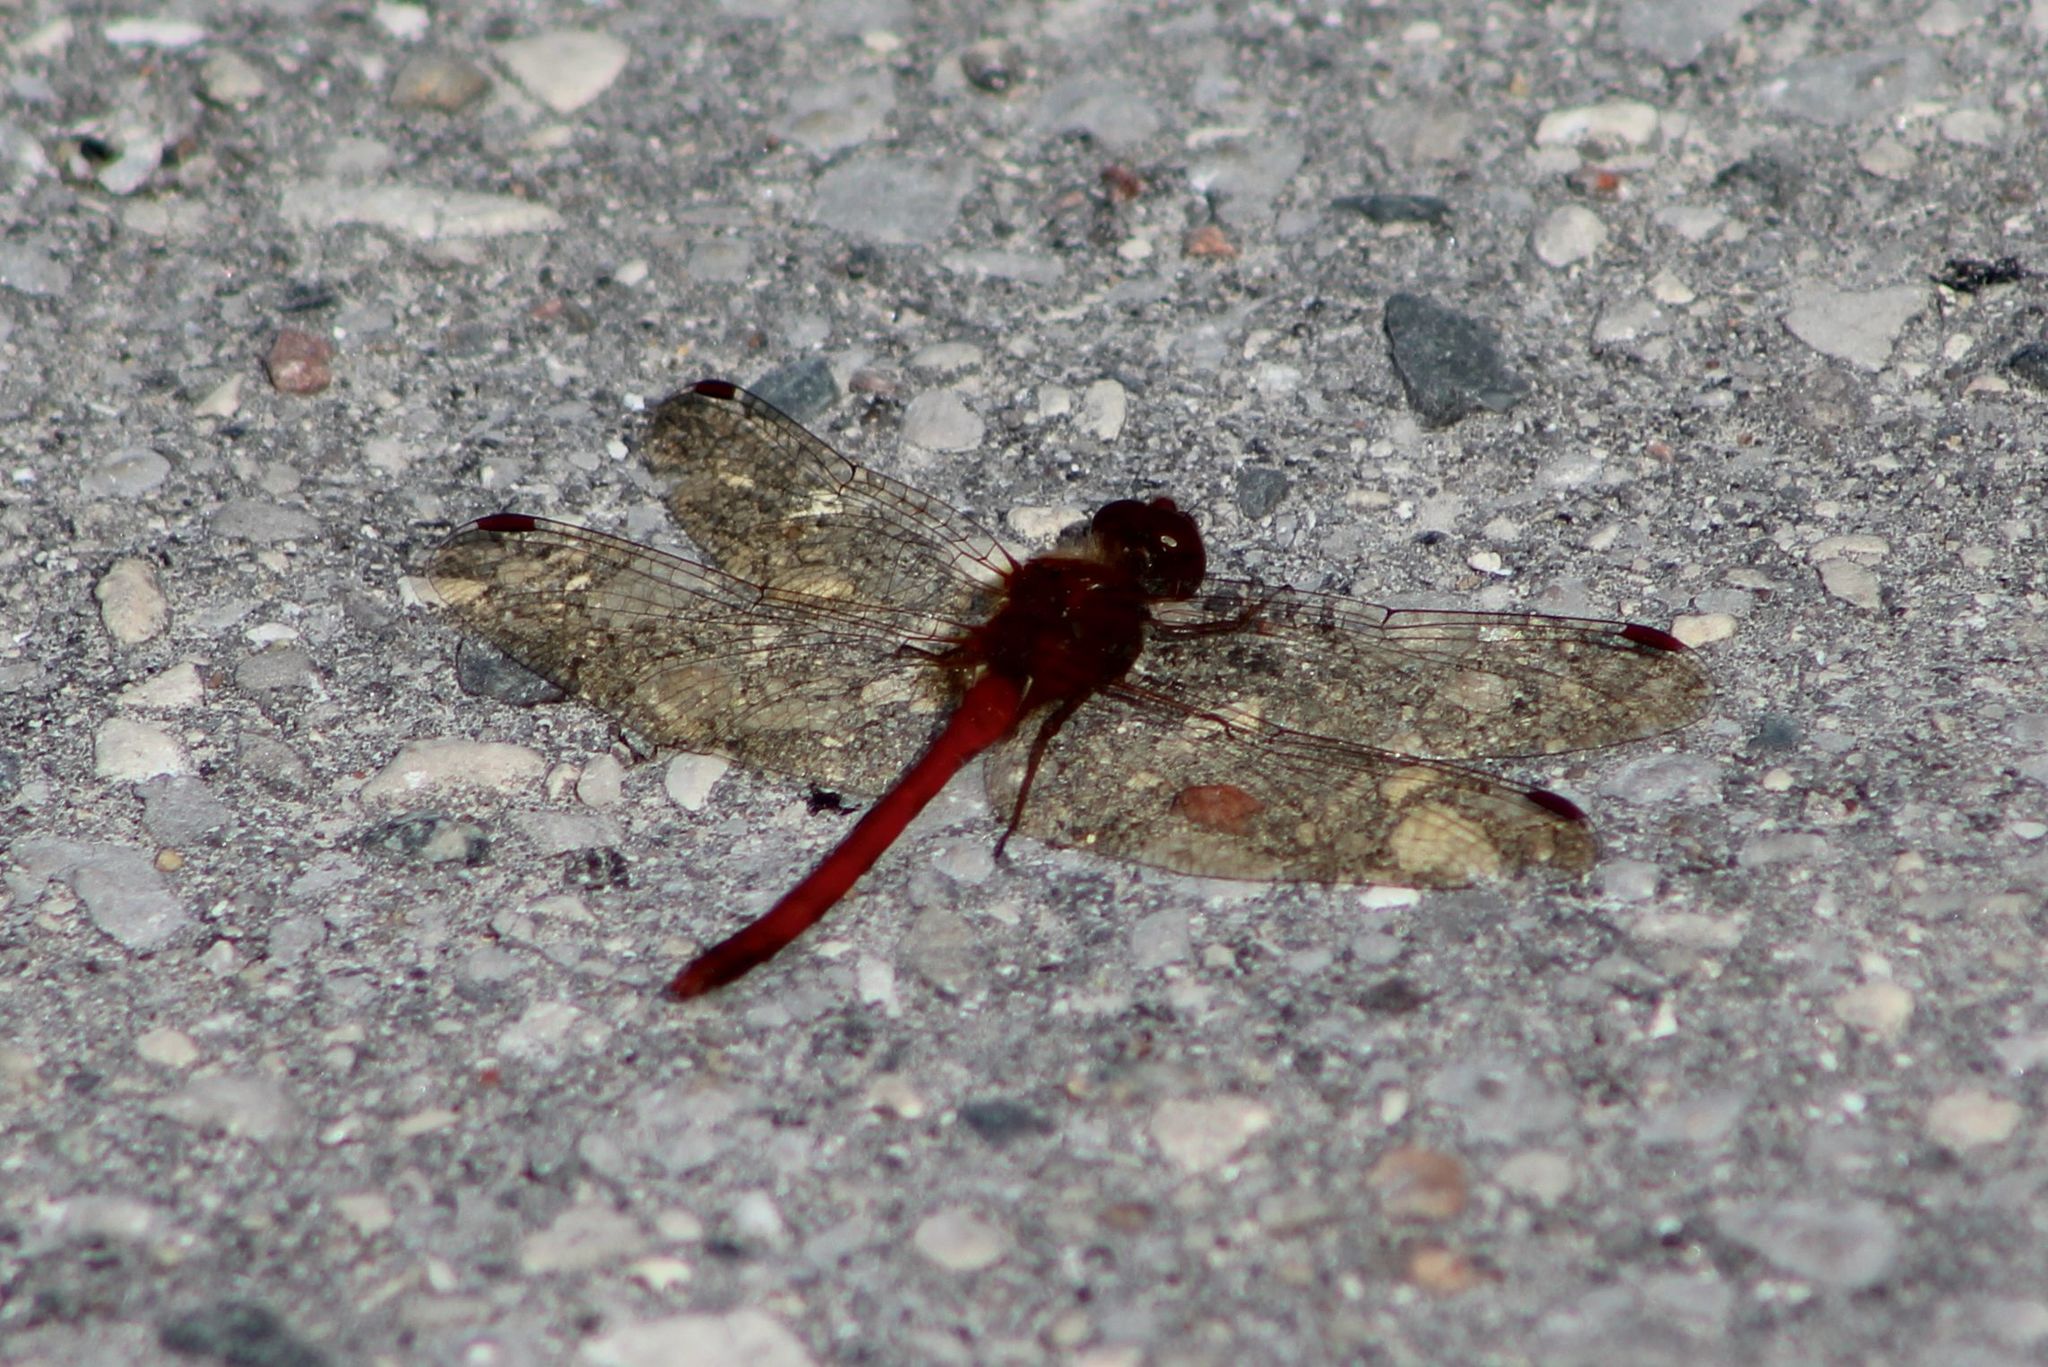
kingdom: Animalia
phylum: Arthropoda
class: Insecta
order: Odonata
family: Libellulidae
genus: Sympetrum
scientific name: Sympetrum vicinum
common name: Autumn meadowhawk
